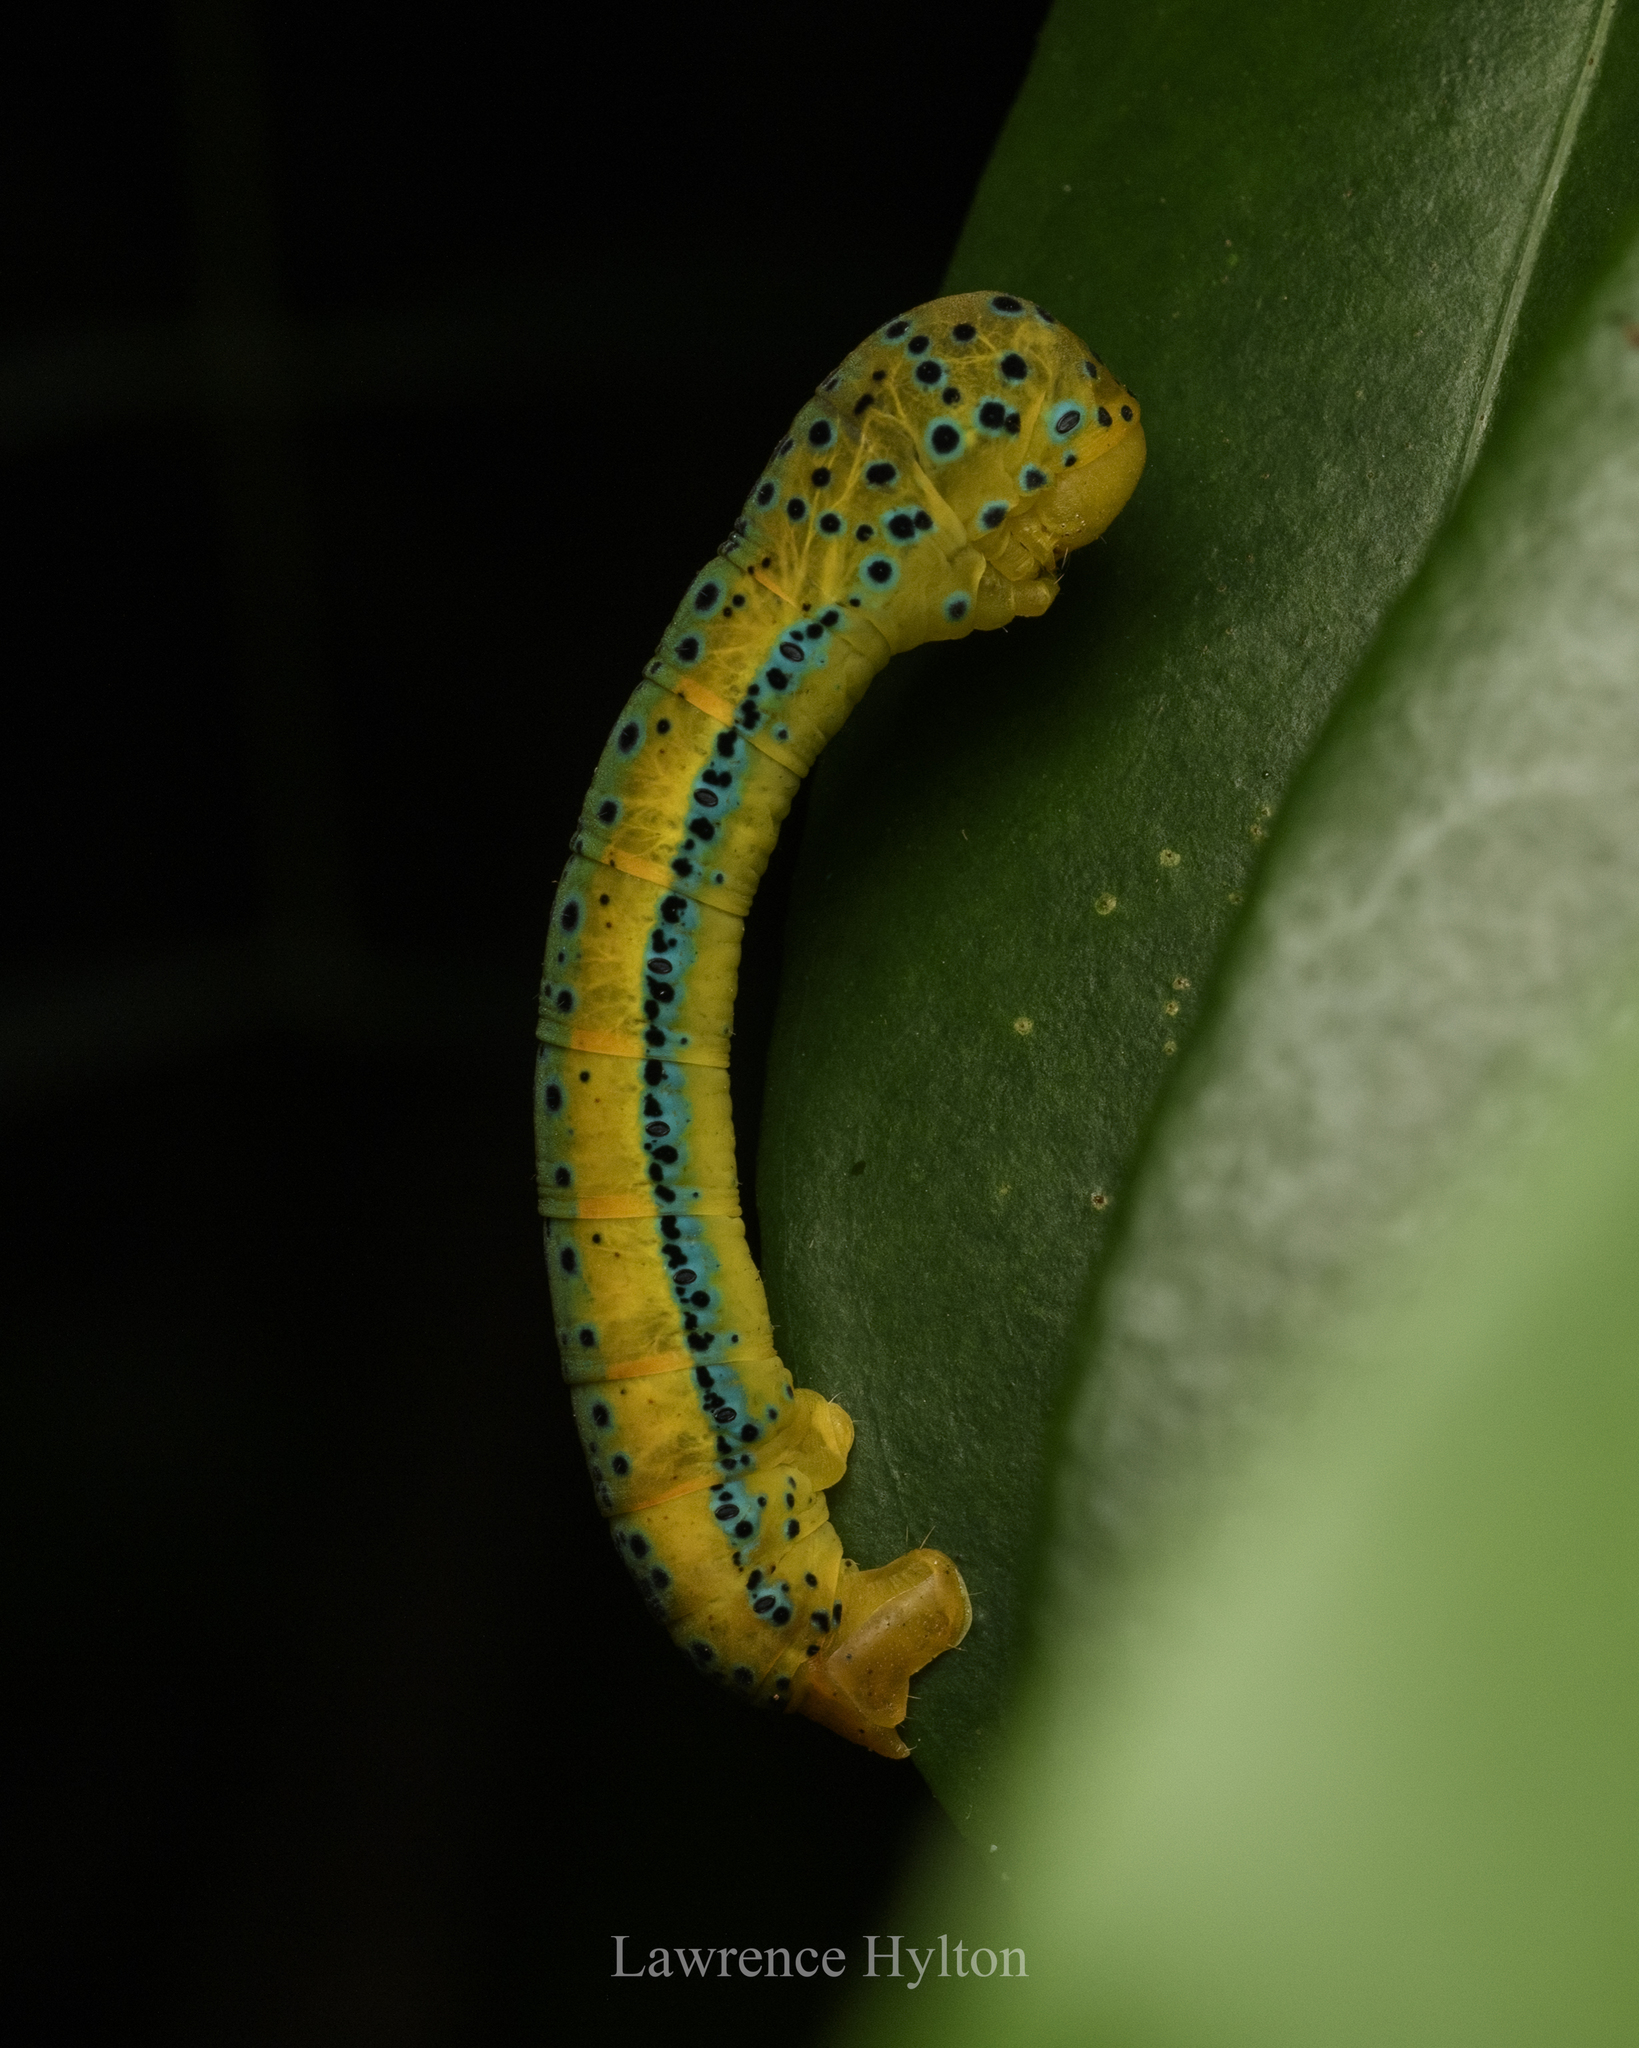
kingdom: Animalia
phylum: Arthropoda
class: Insecta
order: Lepidoptera
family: Geometridae
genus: Dysphania
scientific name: Dysphania militaris
